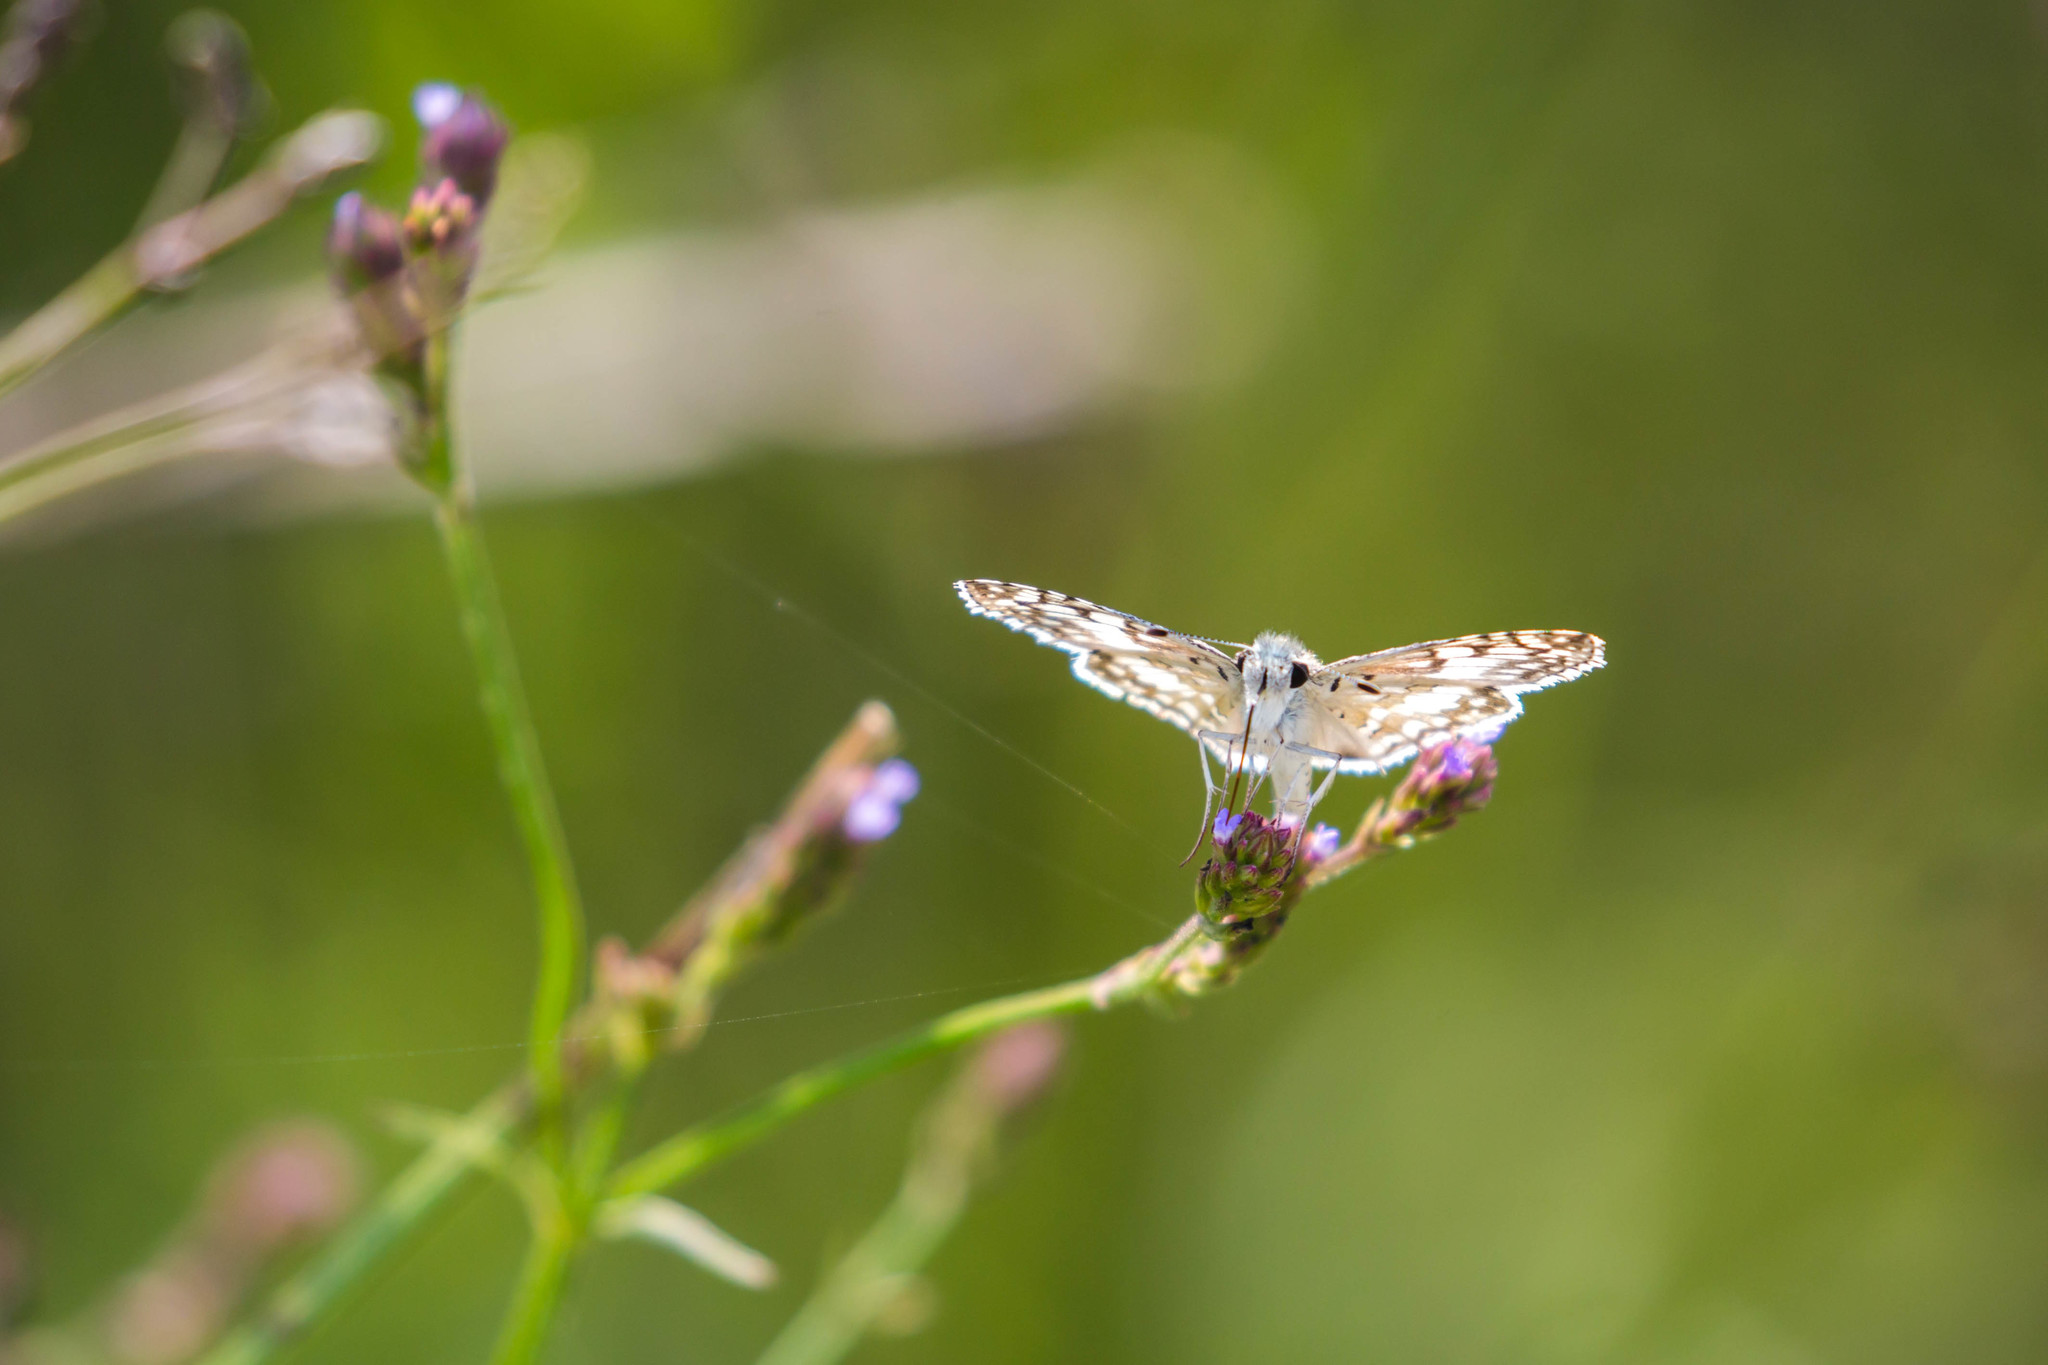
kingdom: Animalia
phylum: Arthropoda
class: Insecta
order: Lepidoptera
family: Hesperiidae
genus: Burnsius
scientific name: Burnsius communis
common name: Common checkered-skipper
